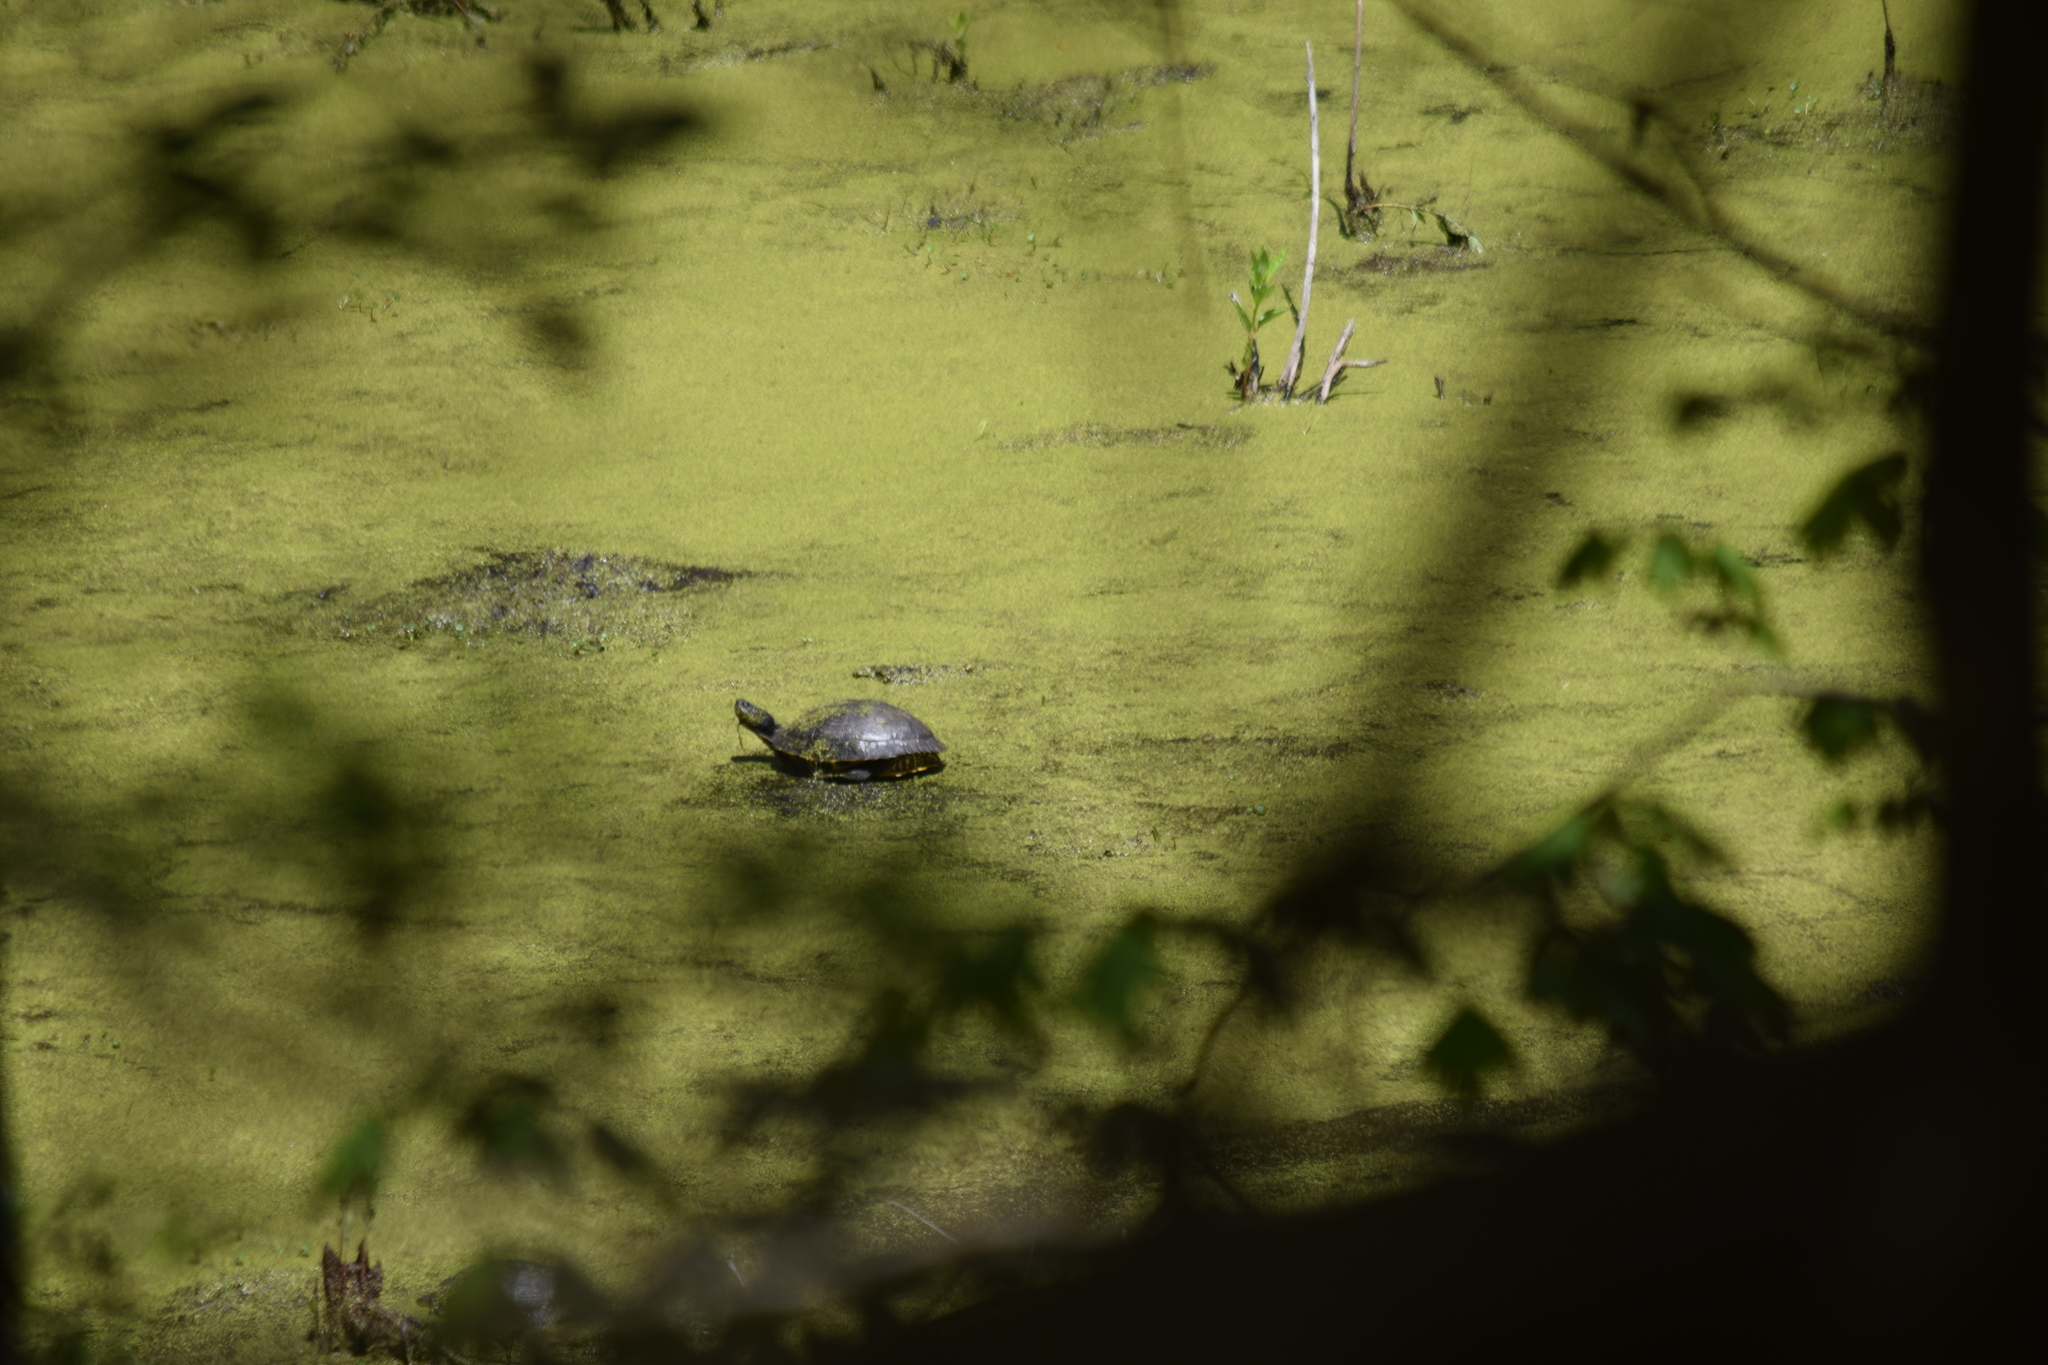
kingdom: Animalia
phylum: Chordata
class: Testudines
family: Emydidae
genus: Trachemys
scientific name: Trachemys scripta
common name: Slider
